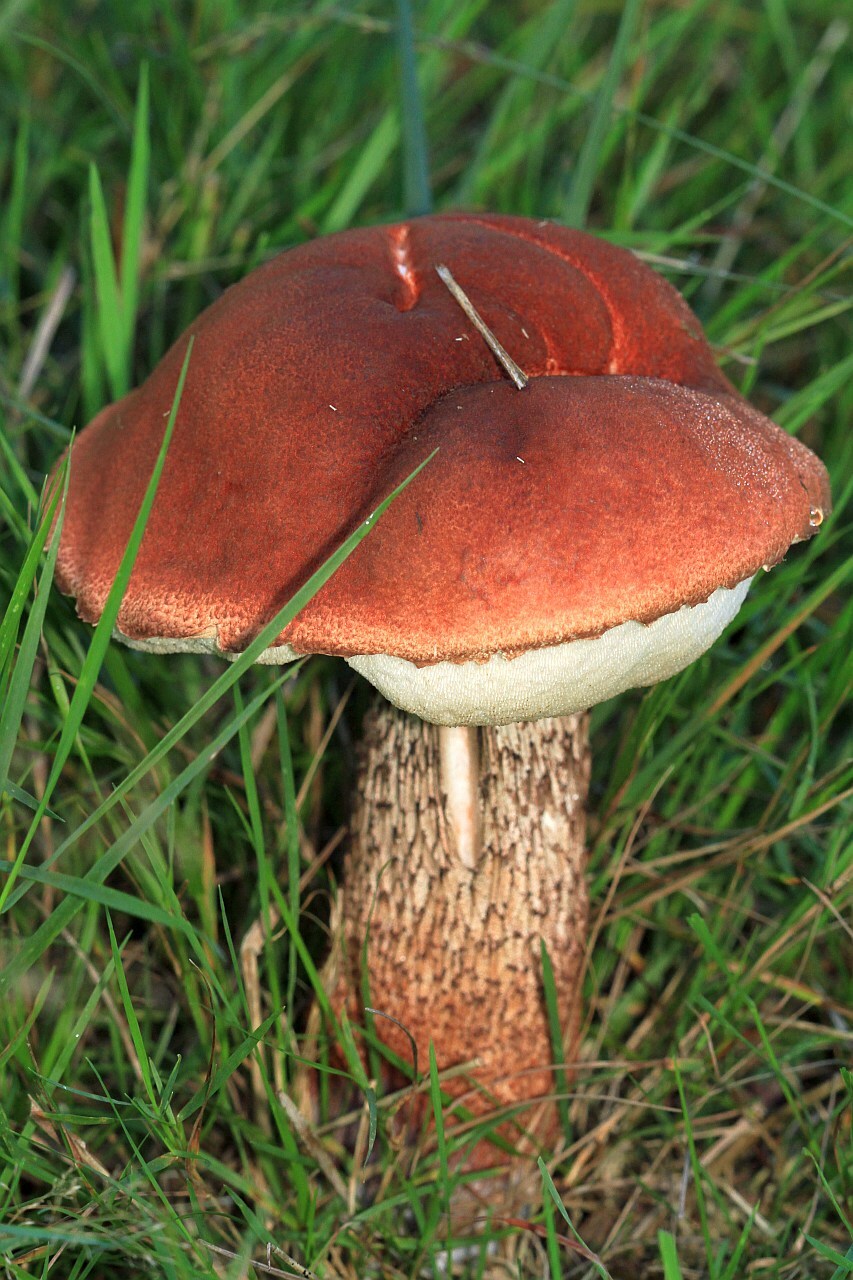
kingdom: Fungi
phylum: Basidiomycota
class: Agaricomycetes
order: Boletales
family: Boletaceae
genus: Leccinum
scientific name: Leccinum aurantiacum
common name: Orange bolete
